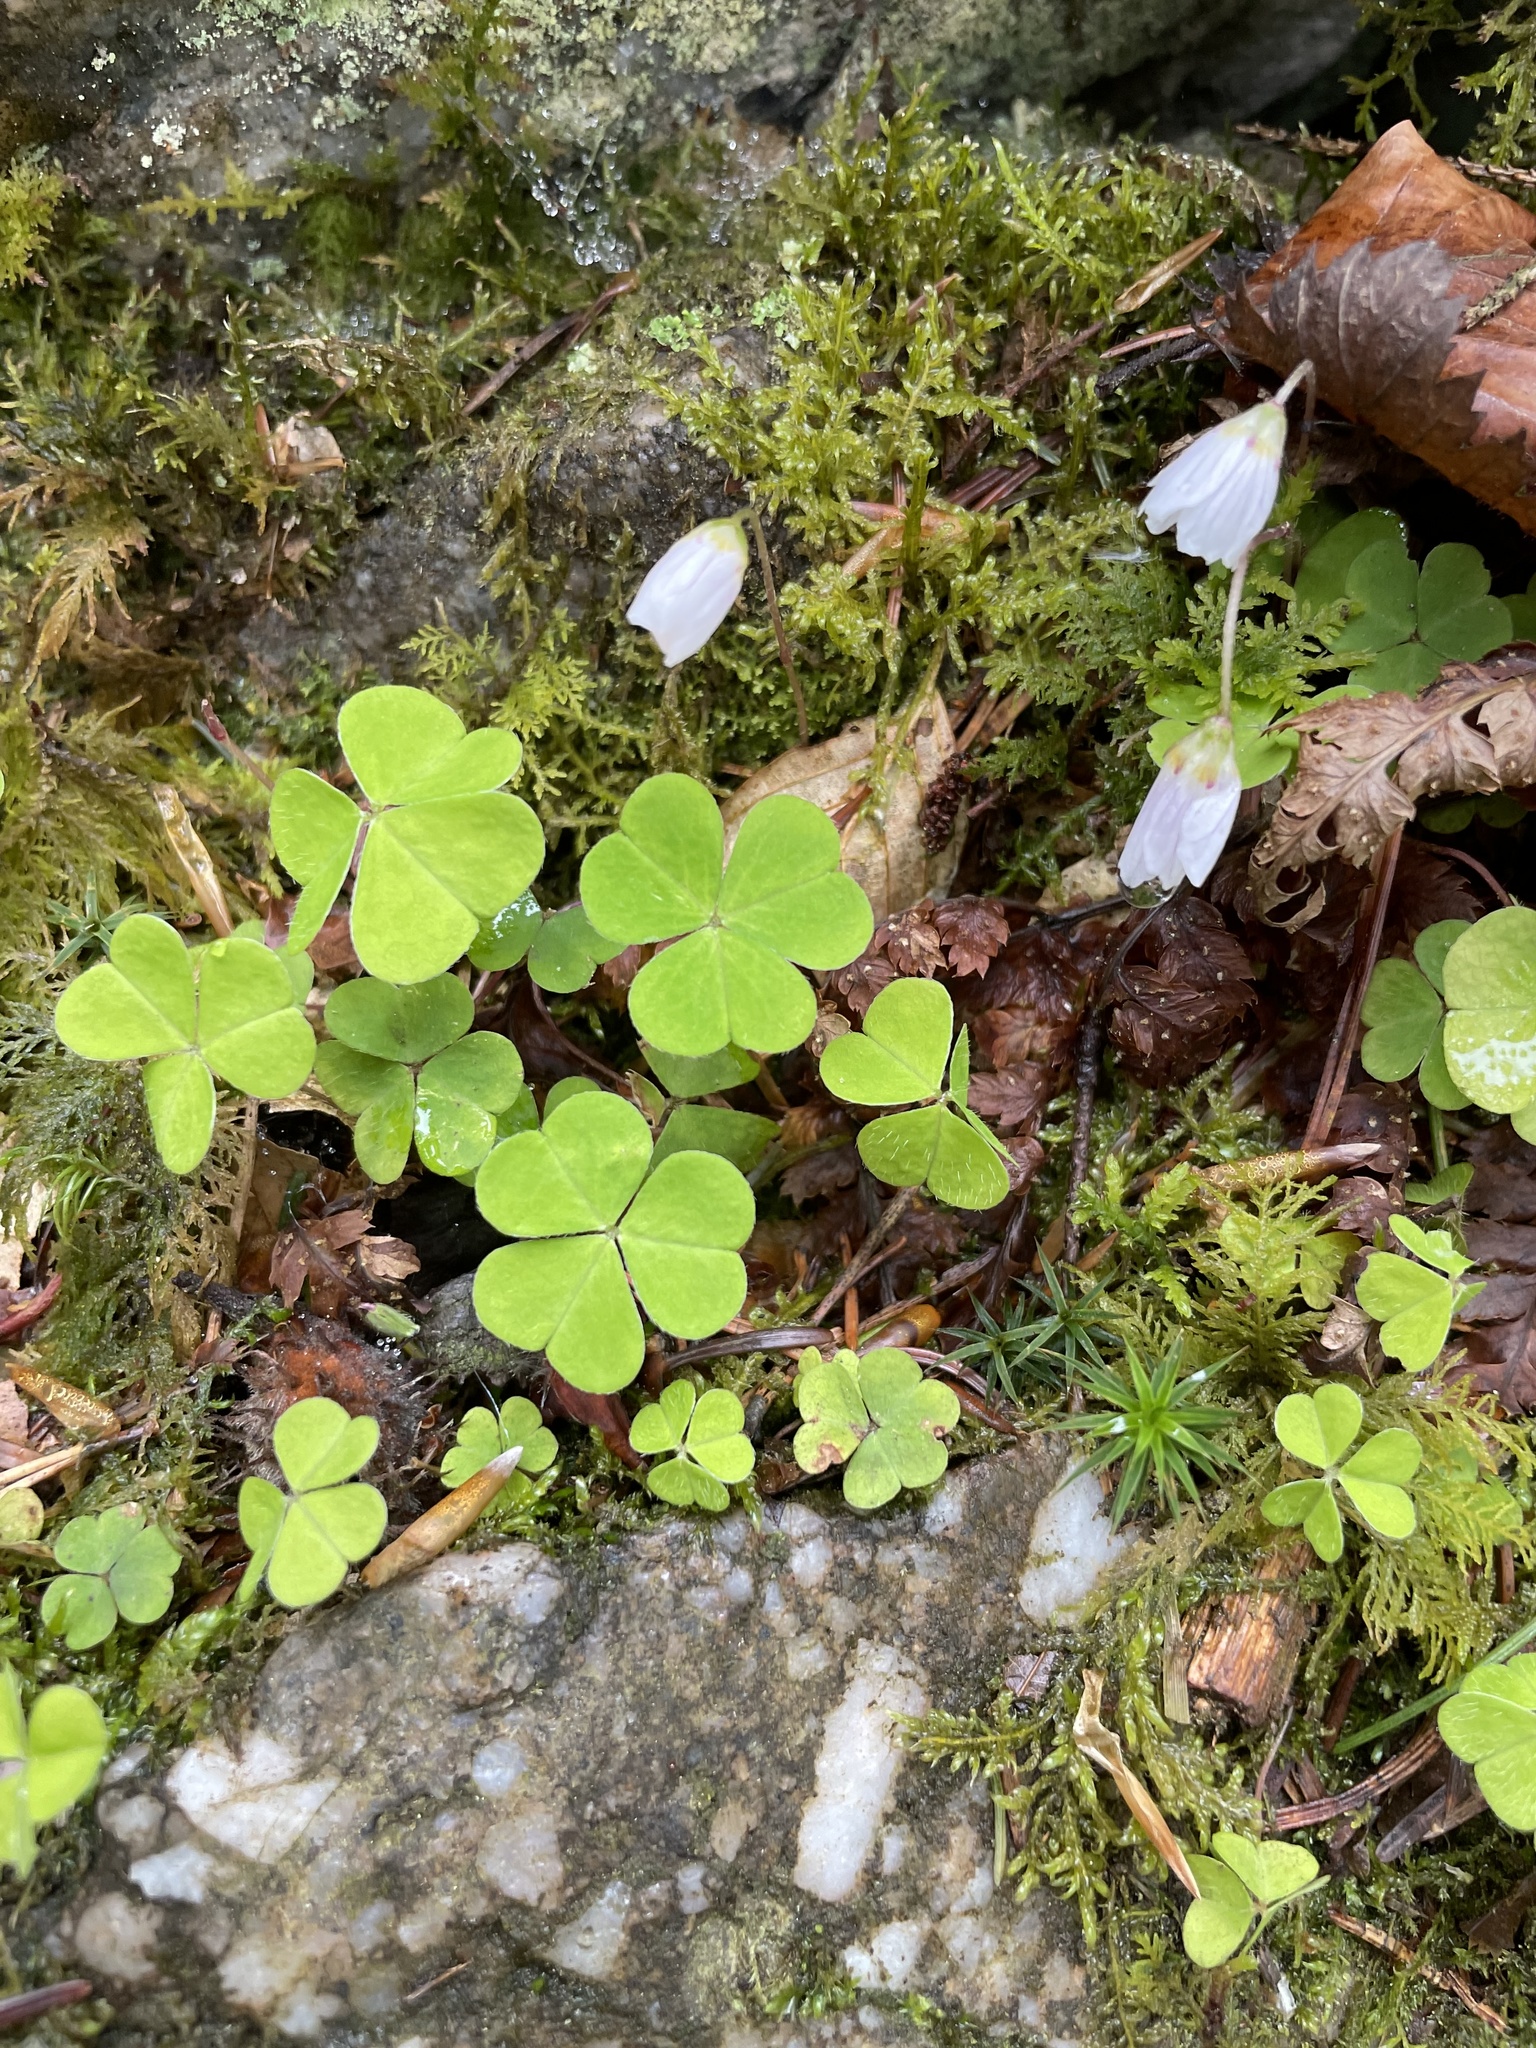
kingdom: Plantae
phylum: Tracheophyta
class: Magnoliopsida
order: Oxalidales
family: Oxalidaceae
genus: Oxalis
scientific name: Oxalis acetosella
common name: Wood-sorrel
